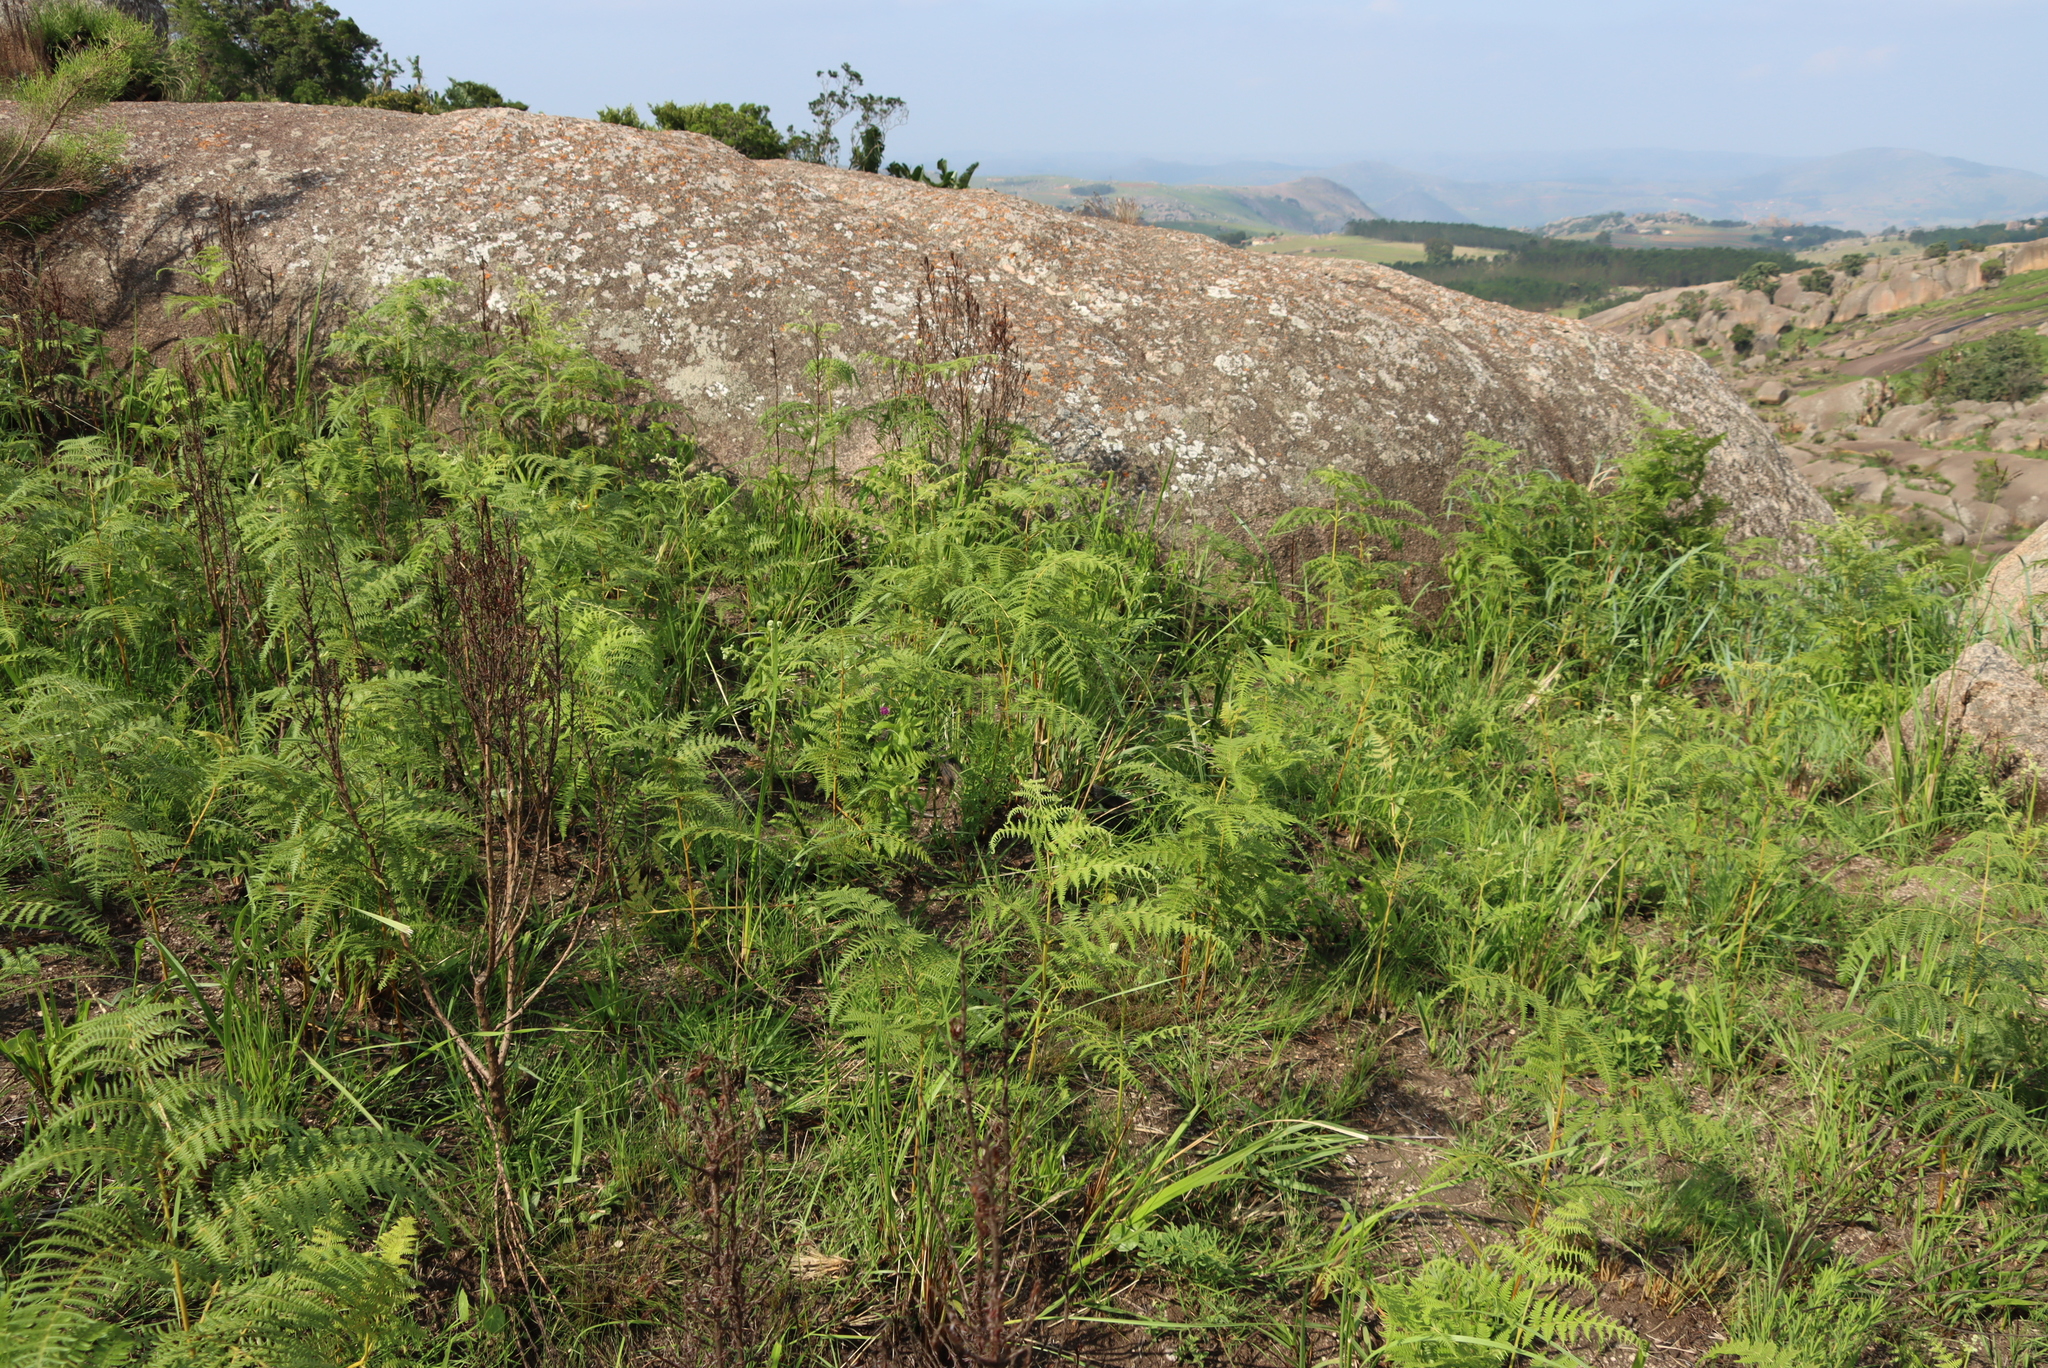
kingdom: Plantae
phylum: Tracheophyta
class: Polypodiopsida
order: Polypodiales
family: Dennstaedtiaceae
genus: Pteridium
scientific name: Pteridium aquilinum
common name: Bracken
